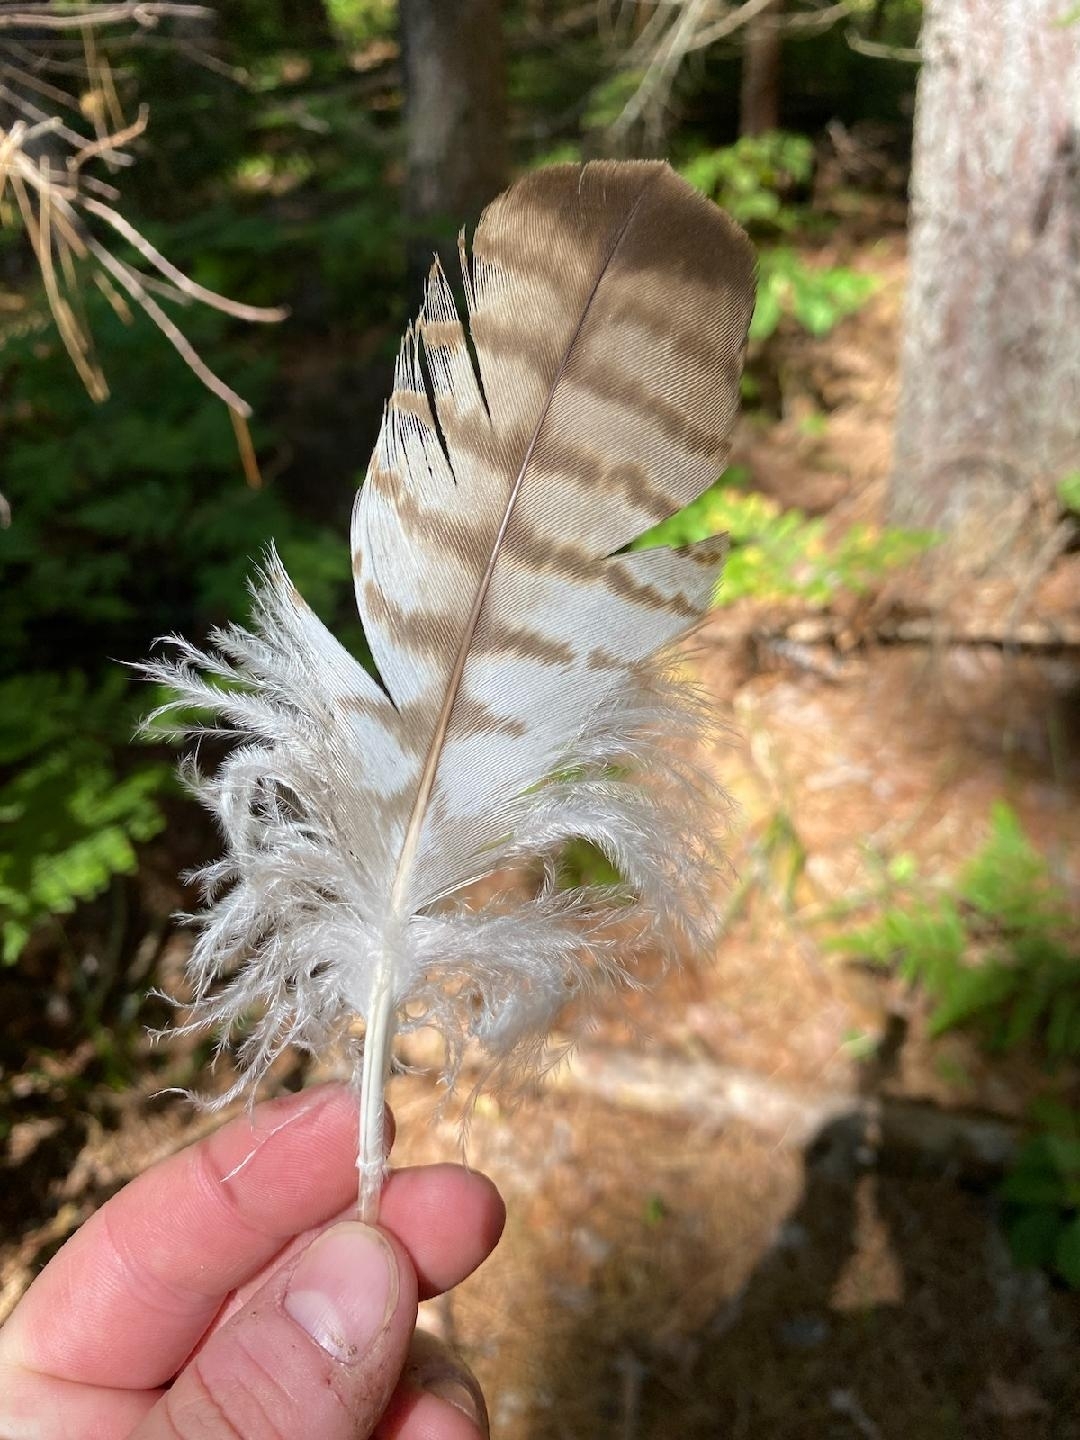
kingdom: Animalia
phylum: Chordata
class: Aves
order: Accipitriformes
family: Accipitridae
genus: Buteo
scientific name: Buteo jamaicensis
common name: Red-tailed hawk
